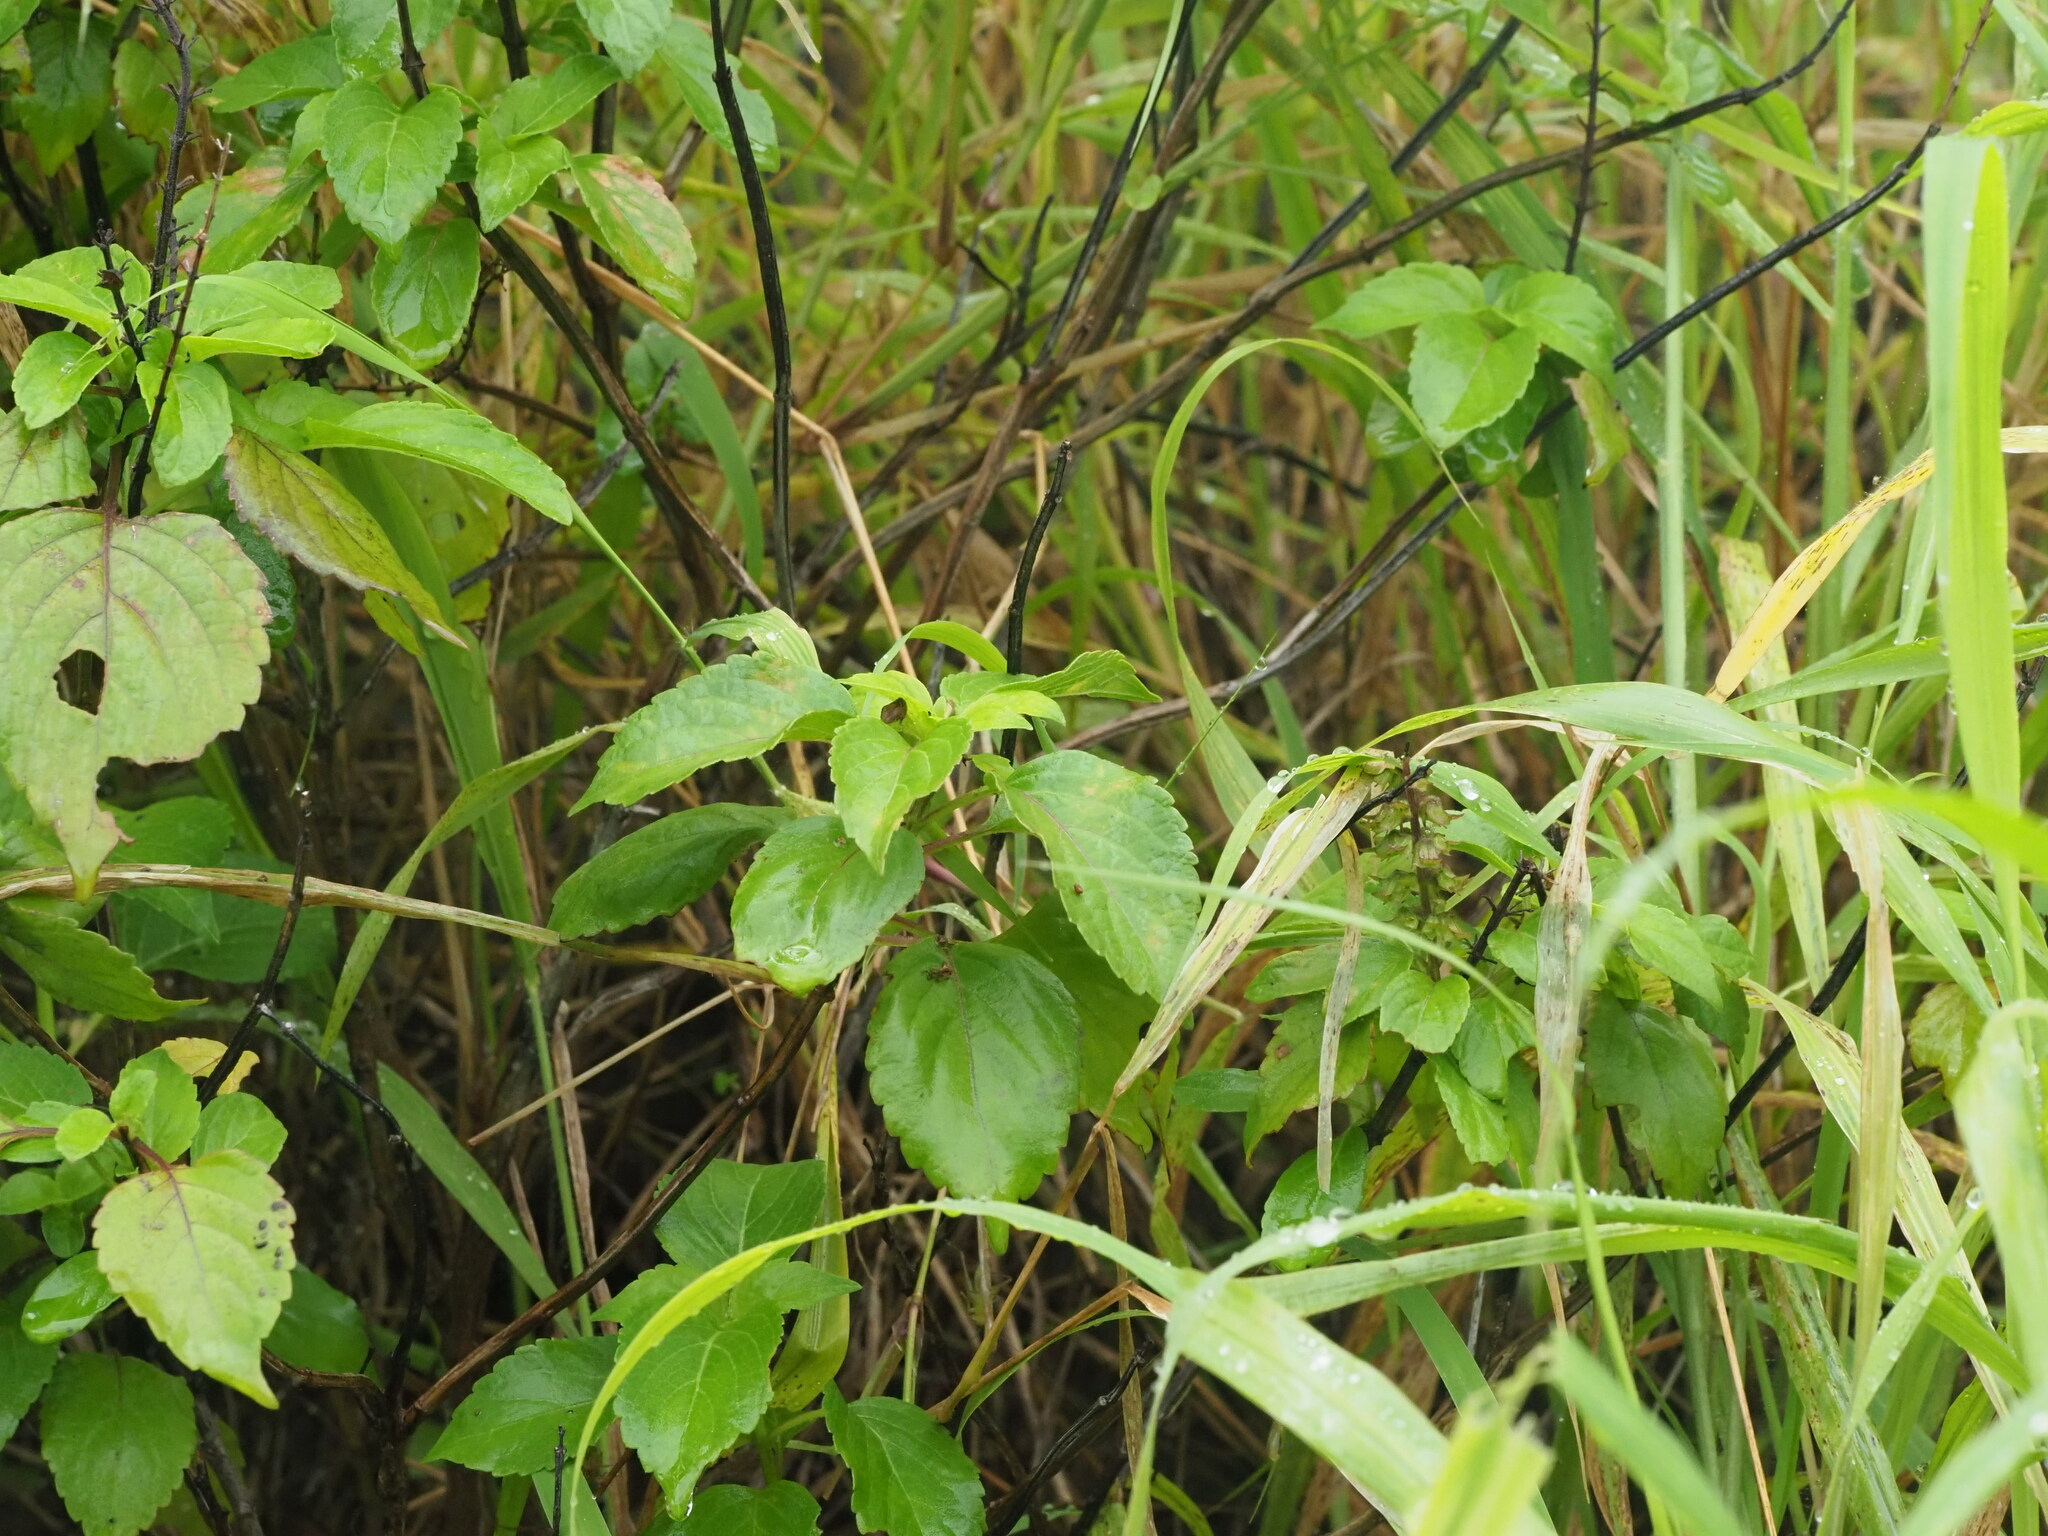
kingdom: Plantae
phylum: Tracheophyta
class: Magnoliopsida
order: Lamiales
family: Lamiaceae
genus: Ocimum
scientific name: Ocimum gratissimum
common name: African basil
